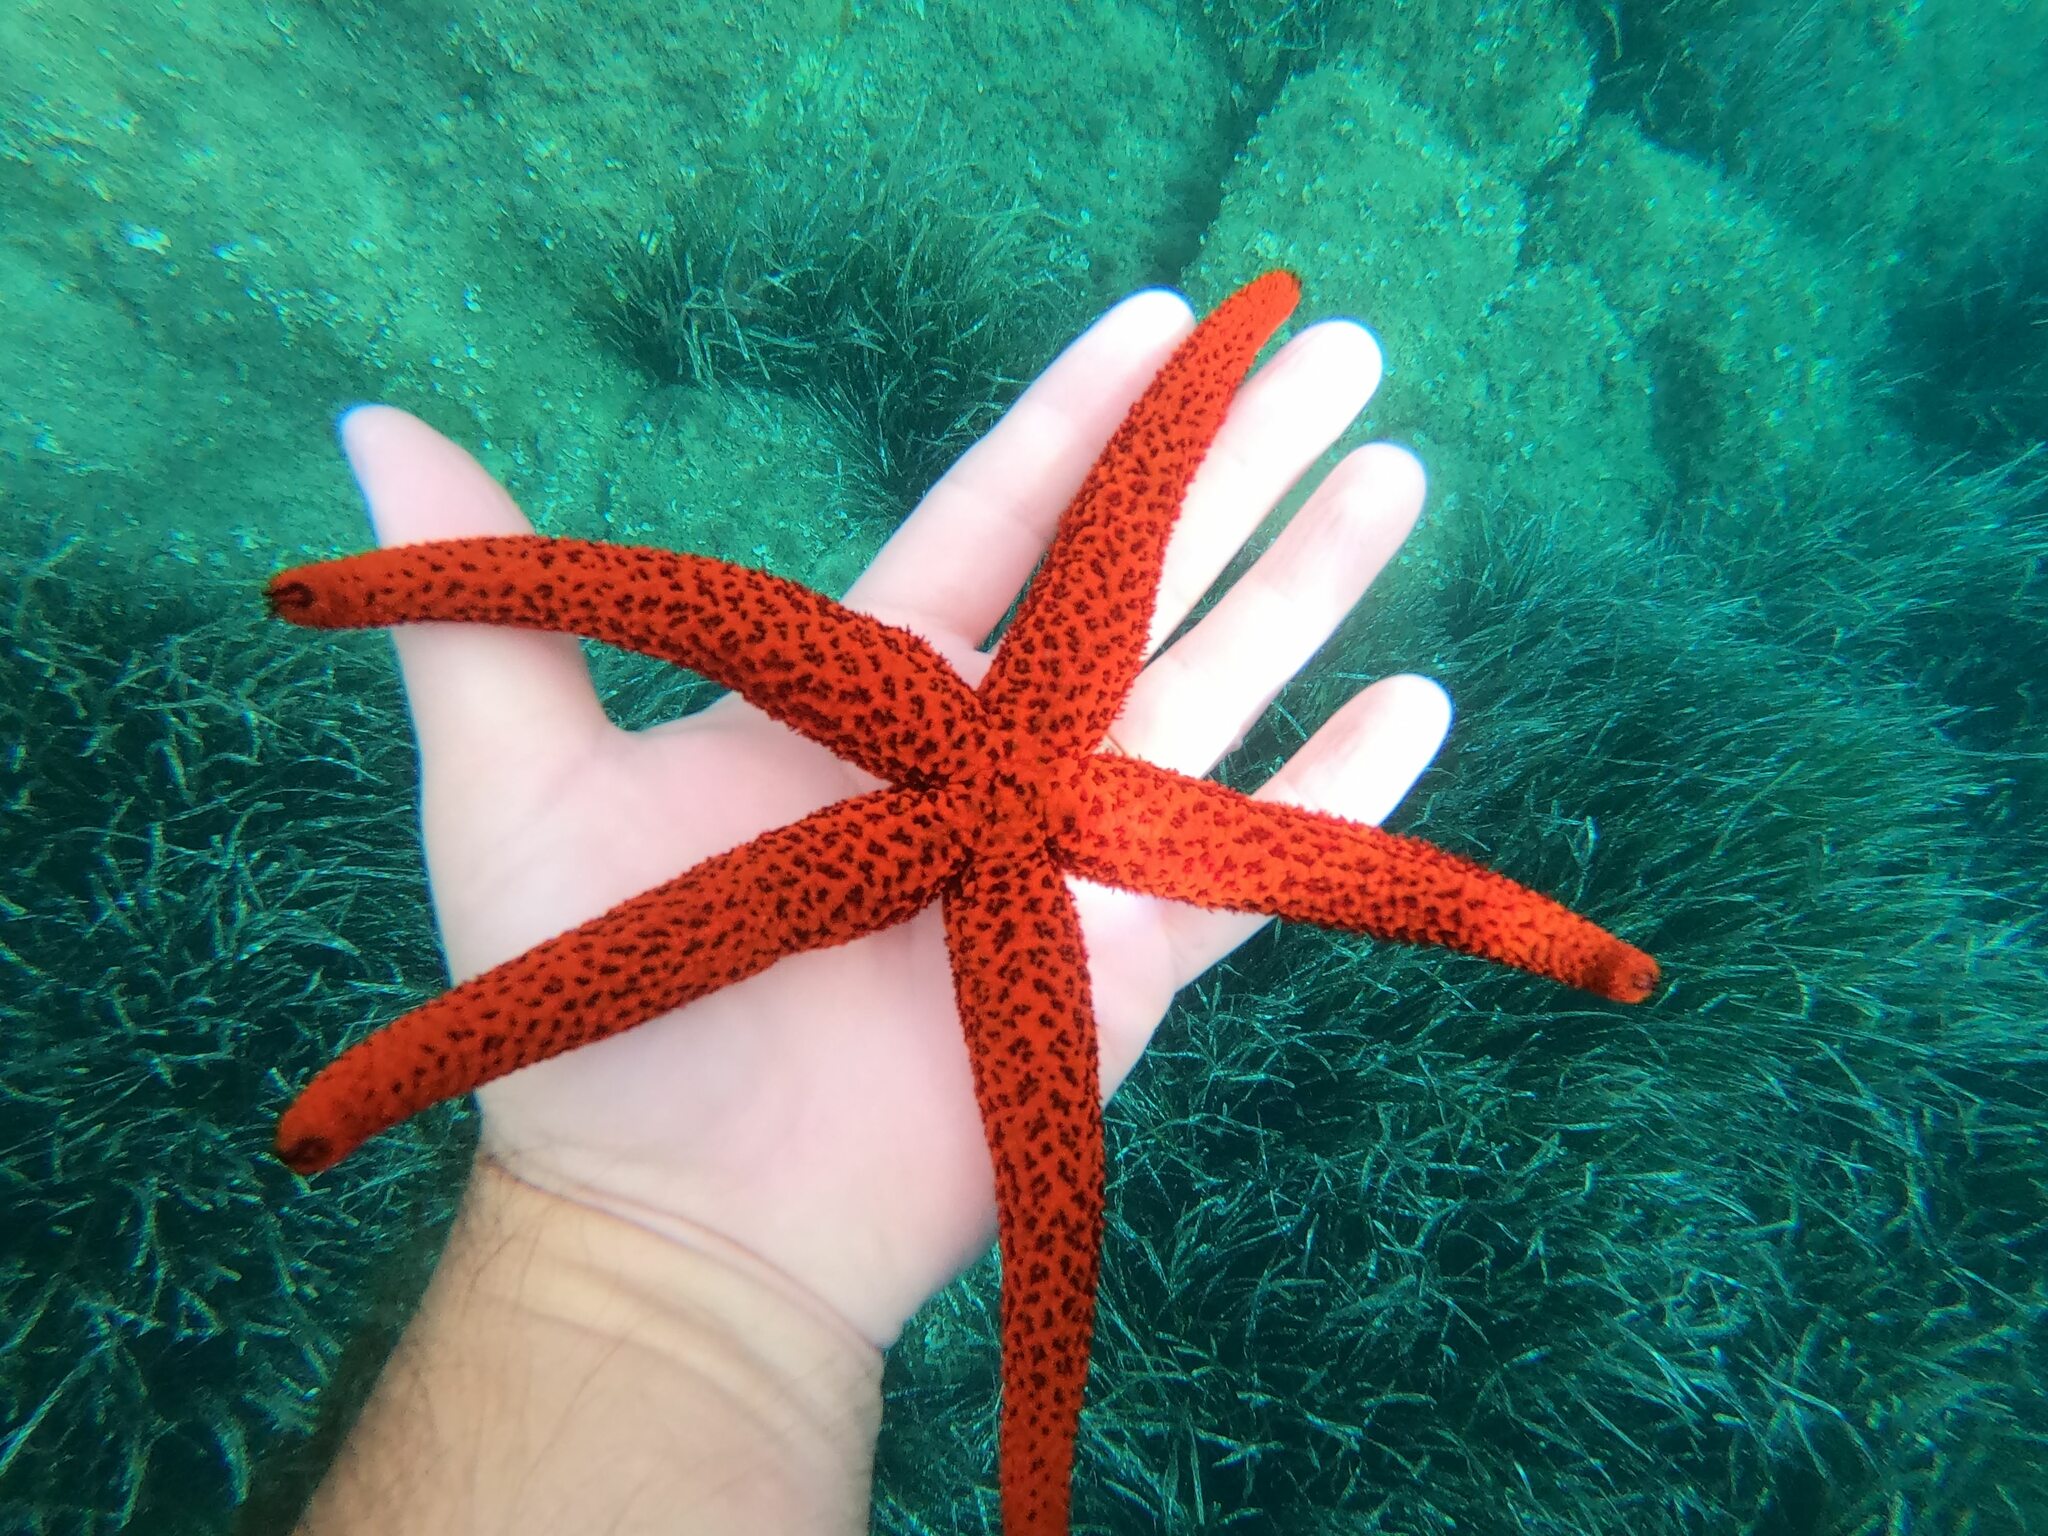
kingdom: Animalia
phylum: Echinodermata
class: Asteroidea
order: Spinulosida
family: Echinasteridae
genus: Echinaster
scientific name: Echinaster sepositus
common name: Red starfish
